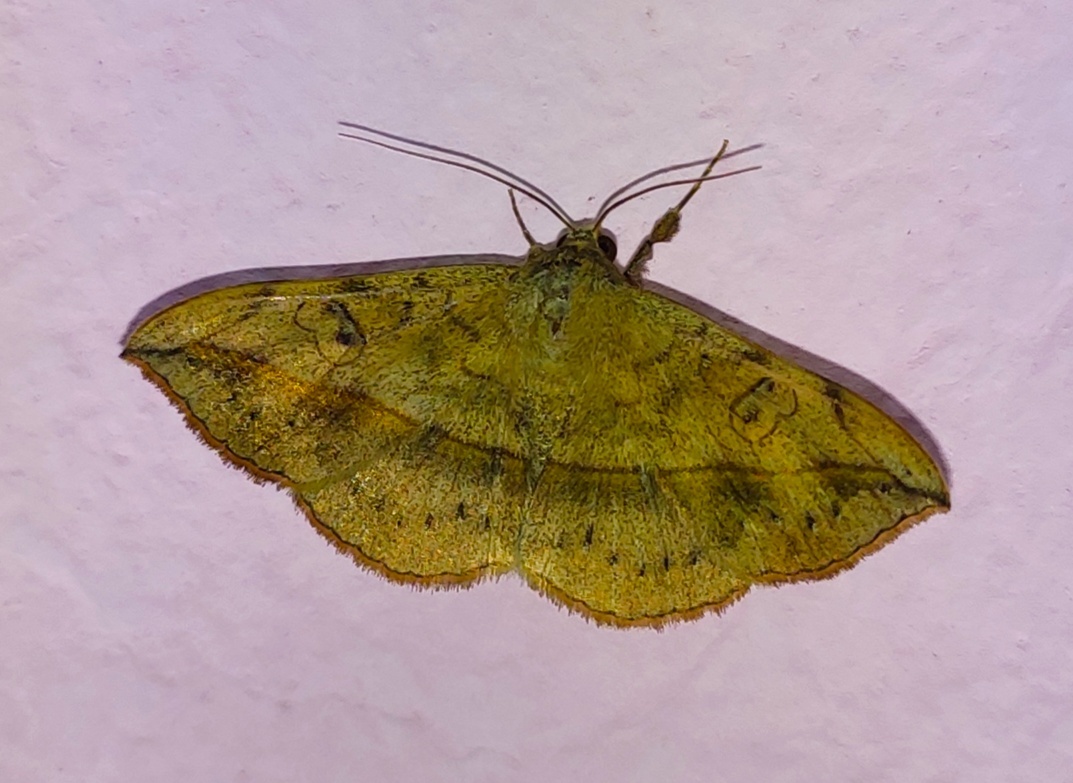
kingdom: Animalia
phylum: Arthropoda
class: Insecta
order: Lepidoptera
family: Erebidae
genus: Anticarsia
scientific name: Anticarsia irrorata
